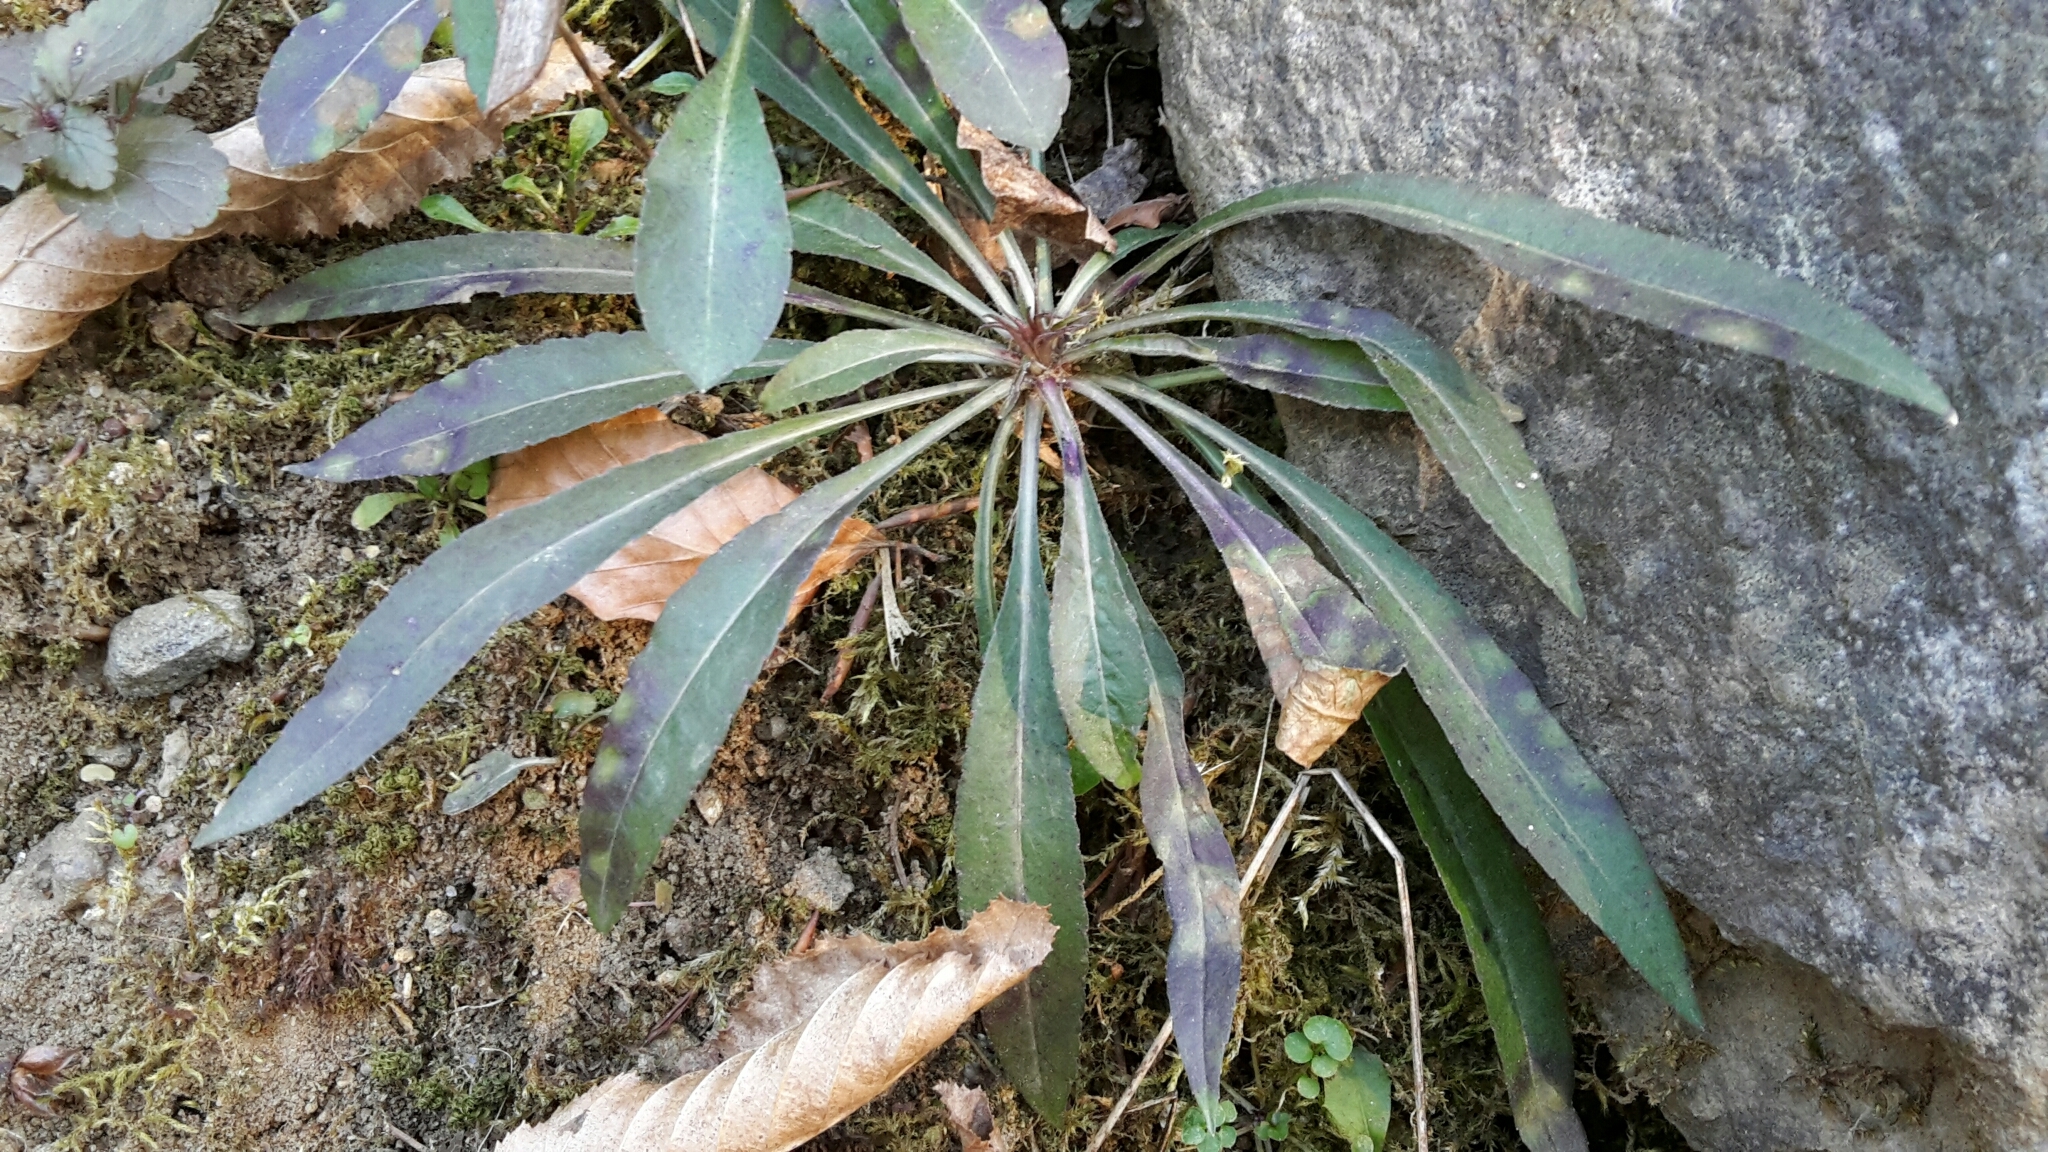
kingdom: Plantae
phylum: Tracheophyta
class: Magnoliopsida
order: Asterales
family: Asteraceae
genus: Solidago
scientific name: Solidago virgaurea
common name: Goldenrod
